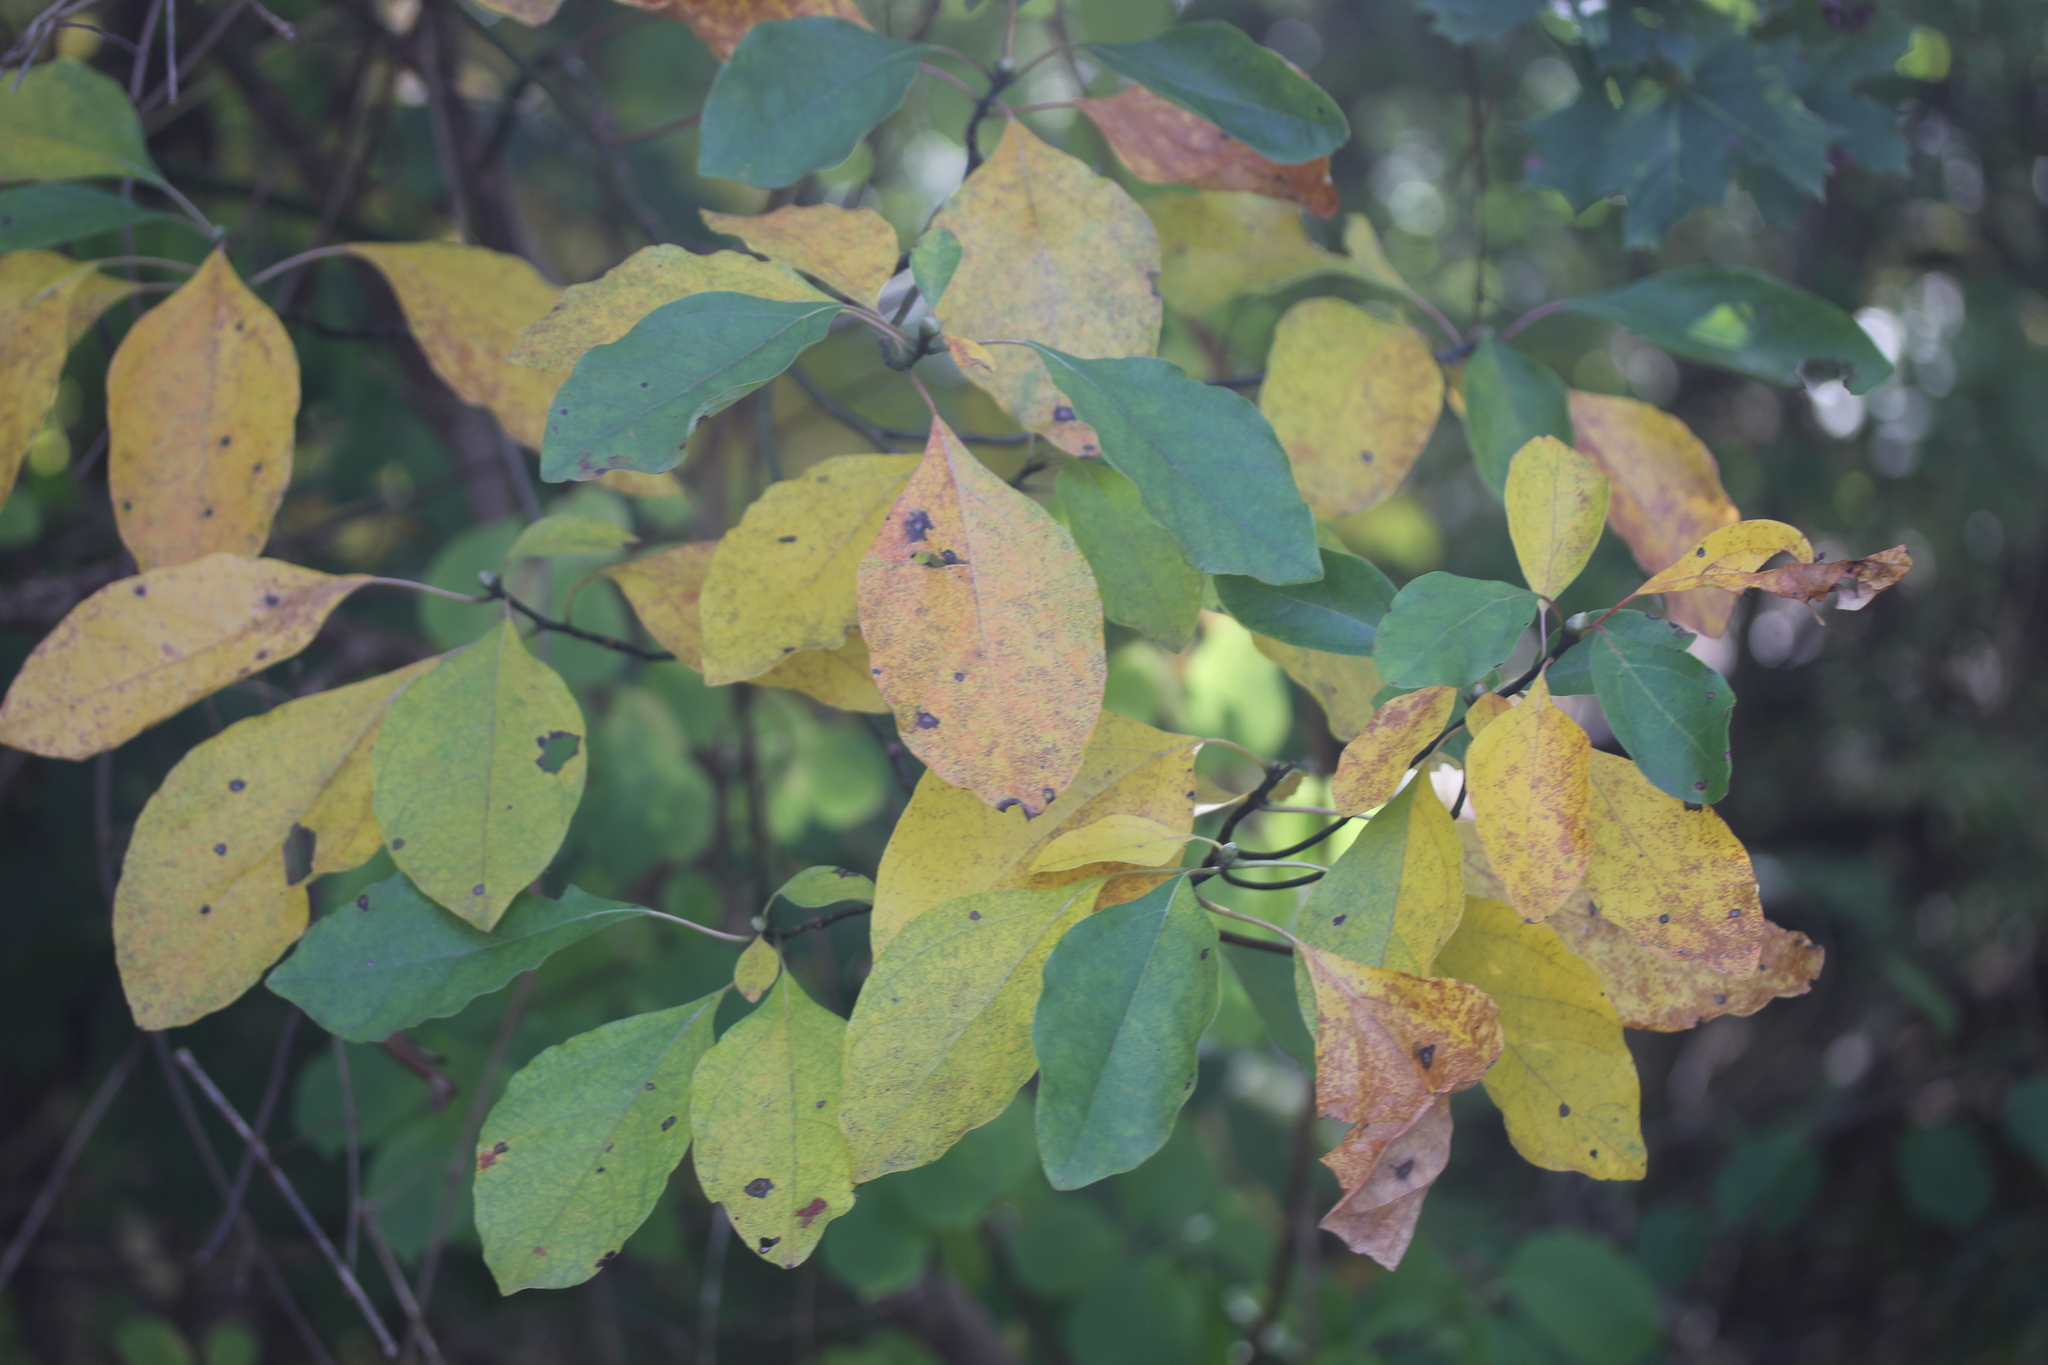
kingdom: Plantae
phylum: Tracheophyta
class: Magnoliopsida
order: Laurales
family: Lauraceae
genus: Sassafras
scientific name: Sassafras albidum
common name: Sassafras
